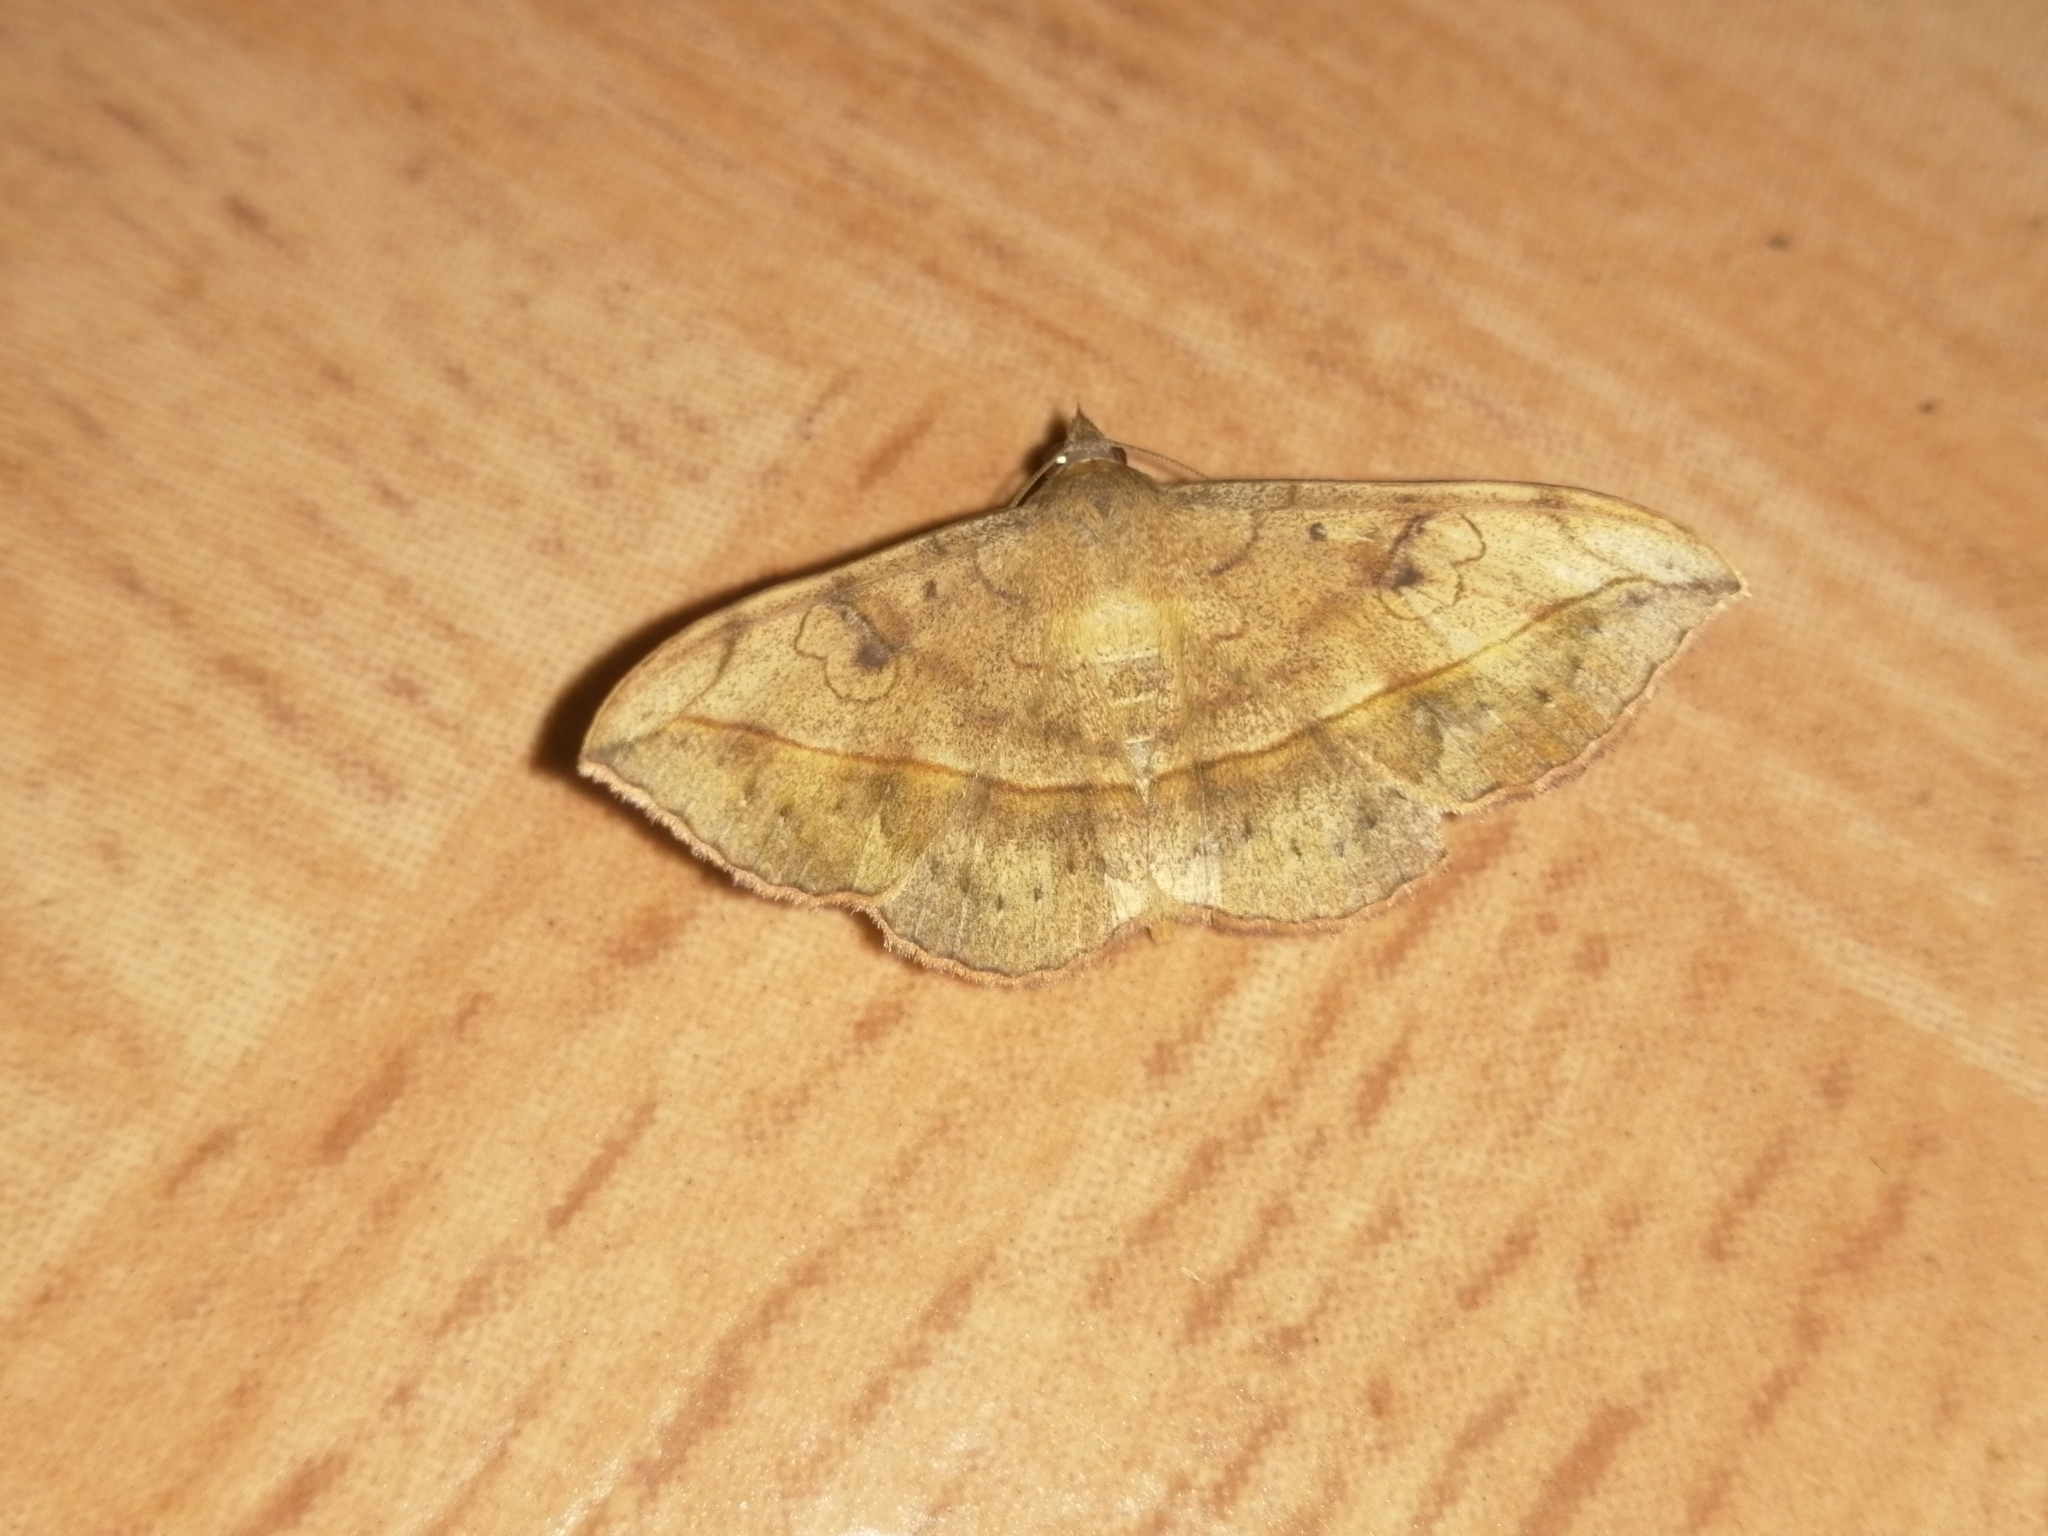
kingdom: Animalia
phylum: Arthropoda
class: Insecta
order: Lepidoptera
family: Erebidae
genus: Anticarsia
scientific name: Anticarsia irrorata
